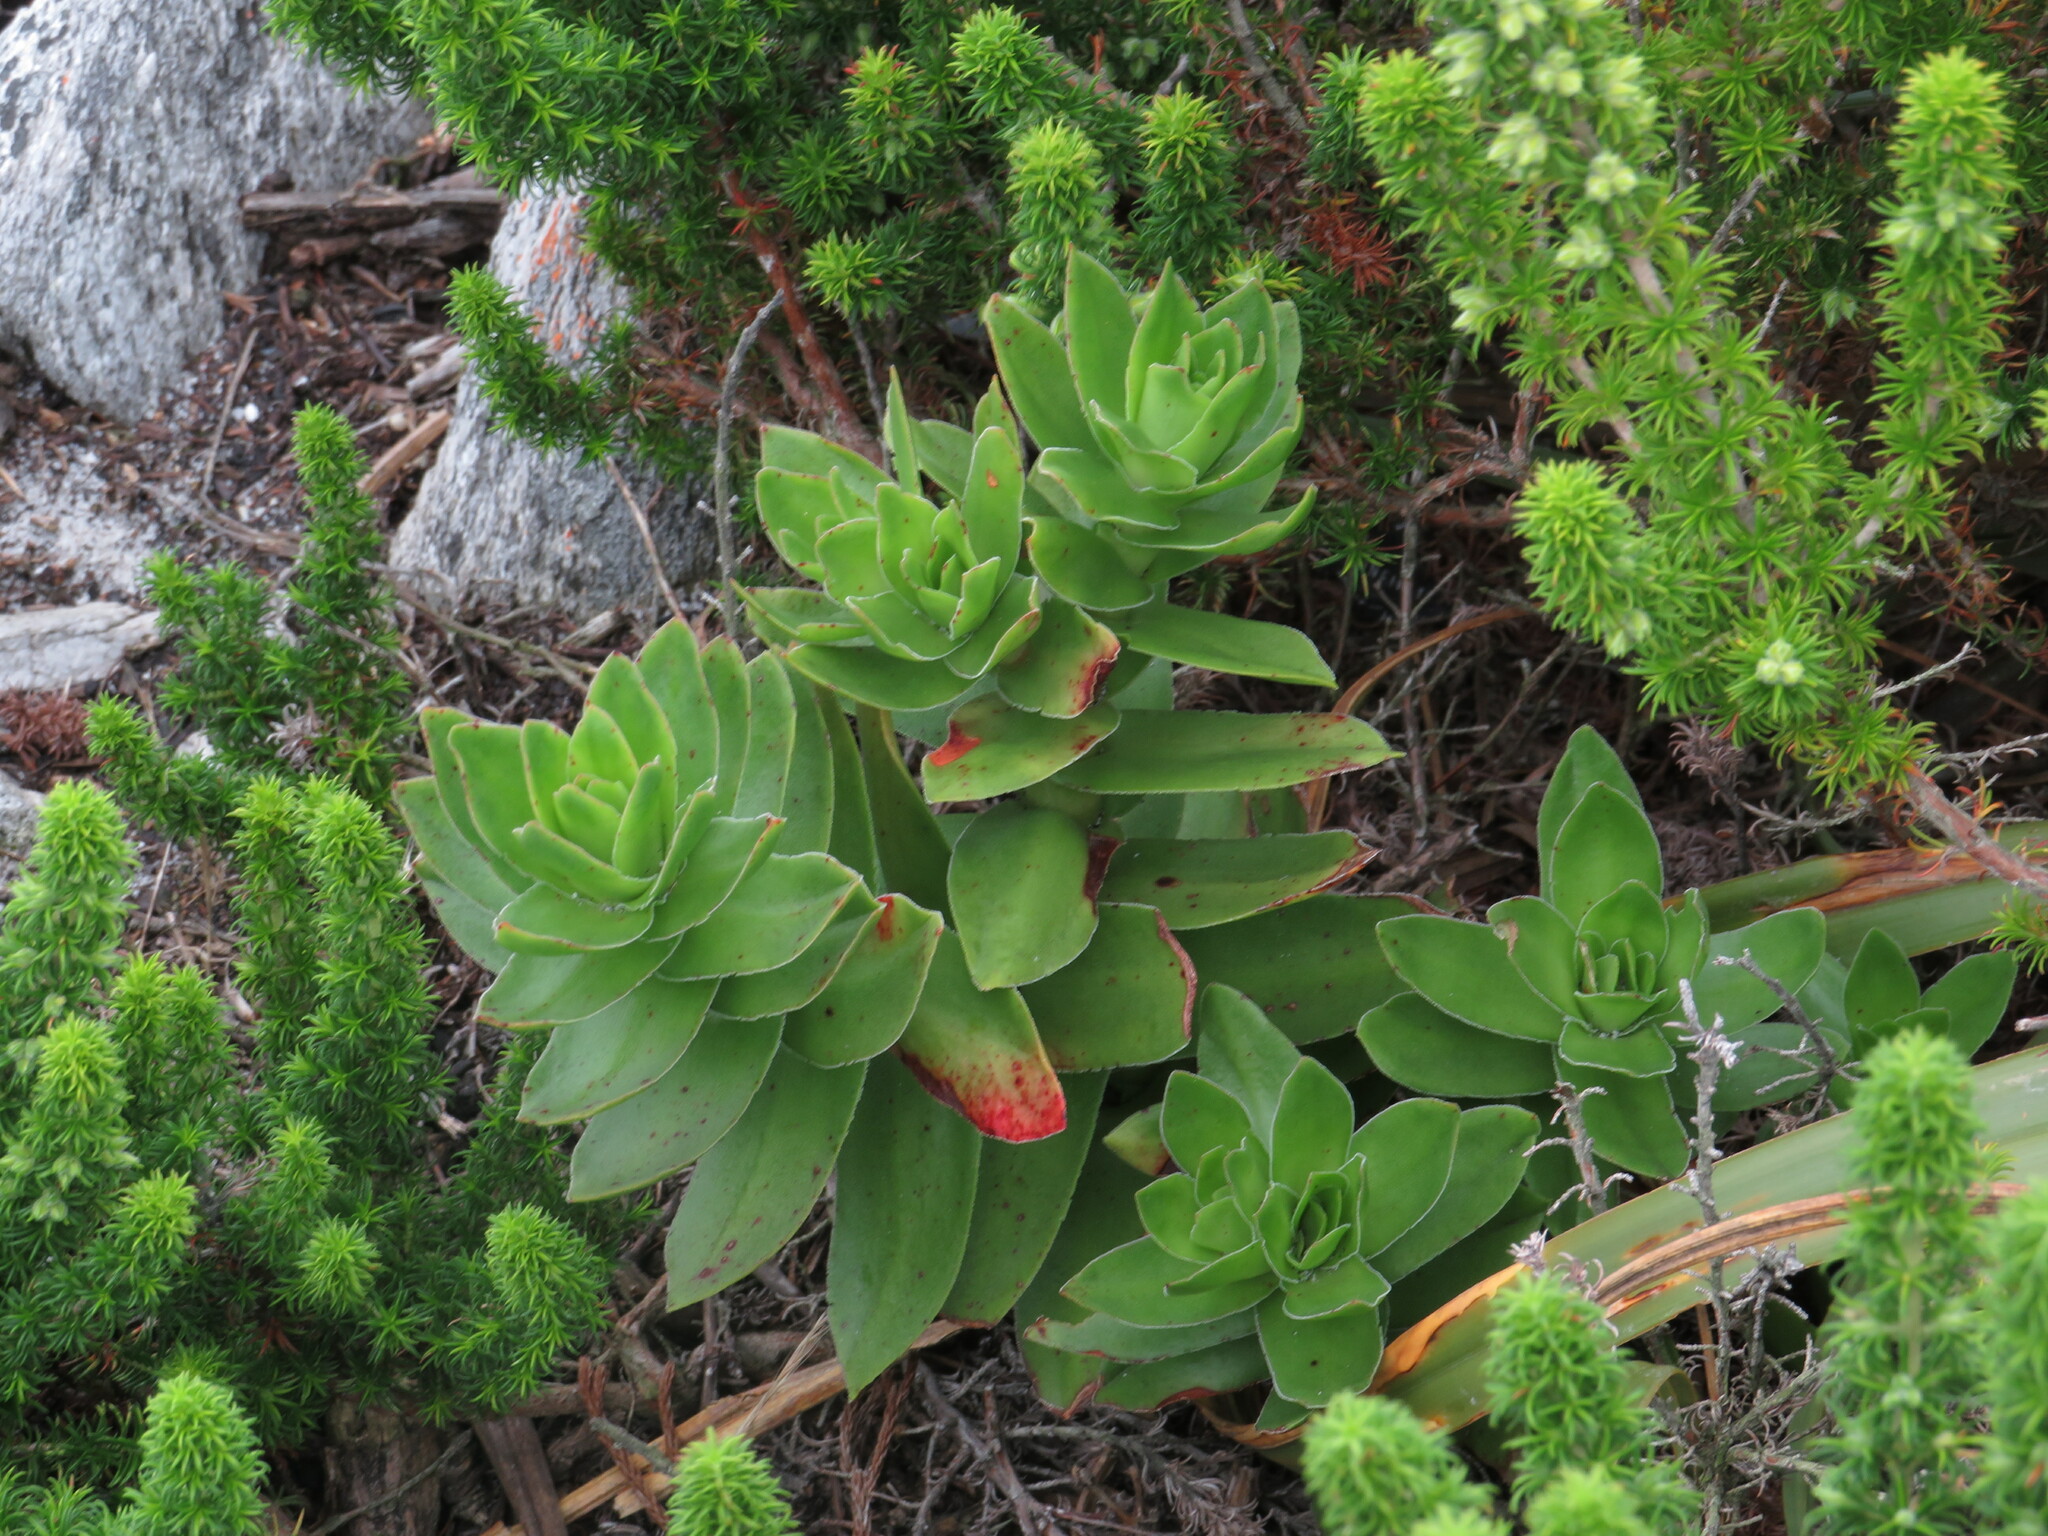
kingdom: Plantae
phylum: Tracheophyta
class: Magnoliopsida
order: Saxifragales
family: Crassulaceae
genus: Crassula
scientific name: Crassula coccinea
